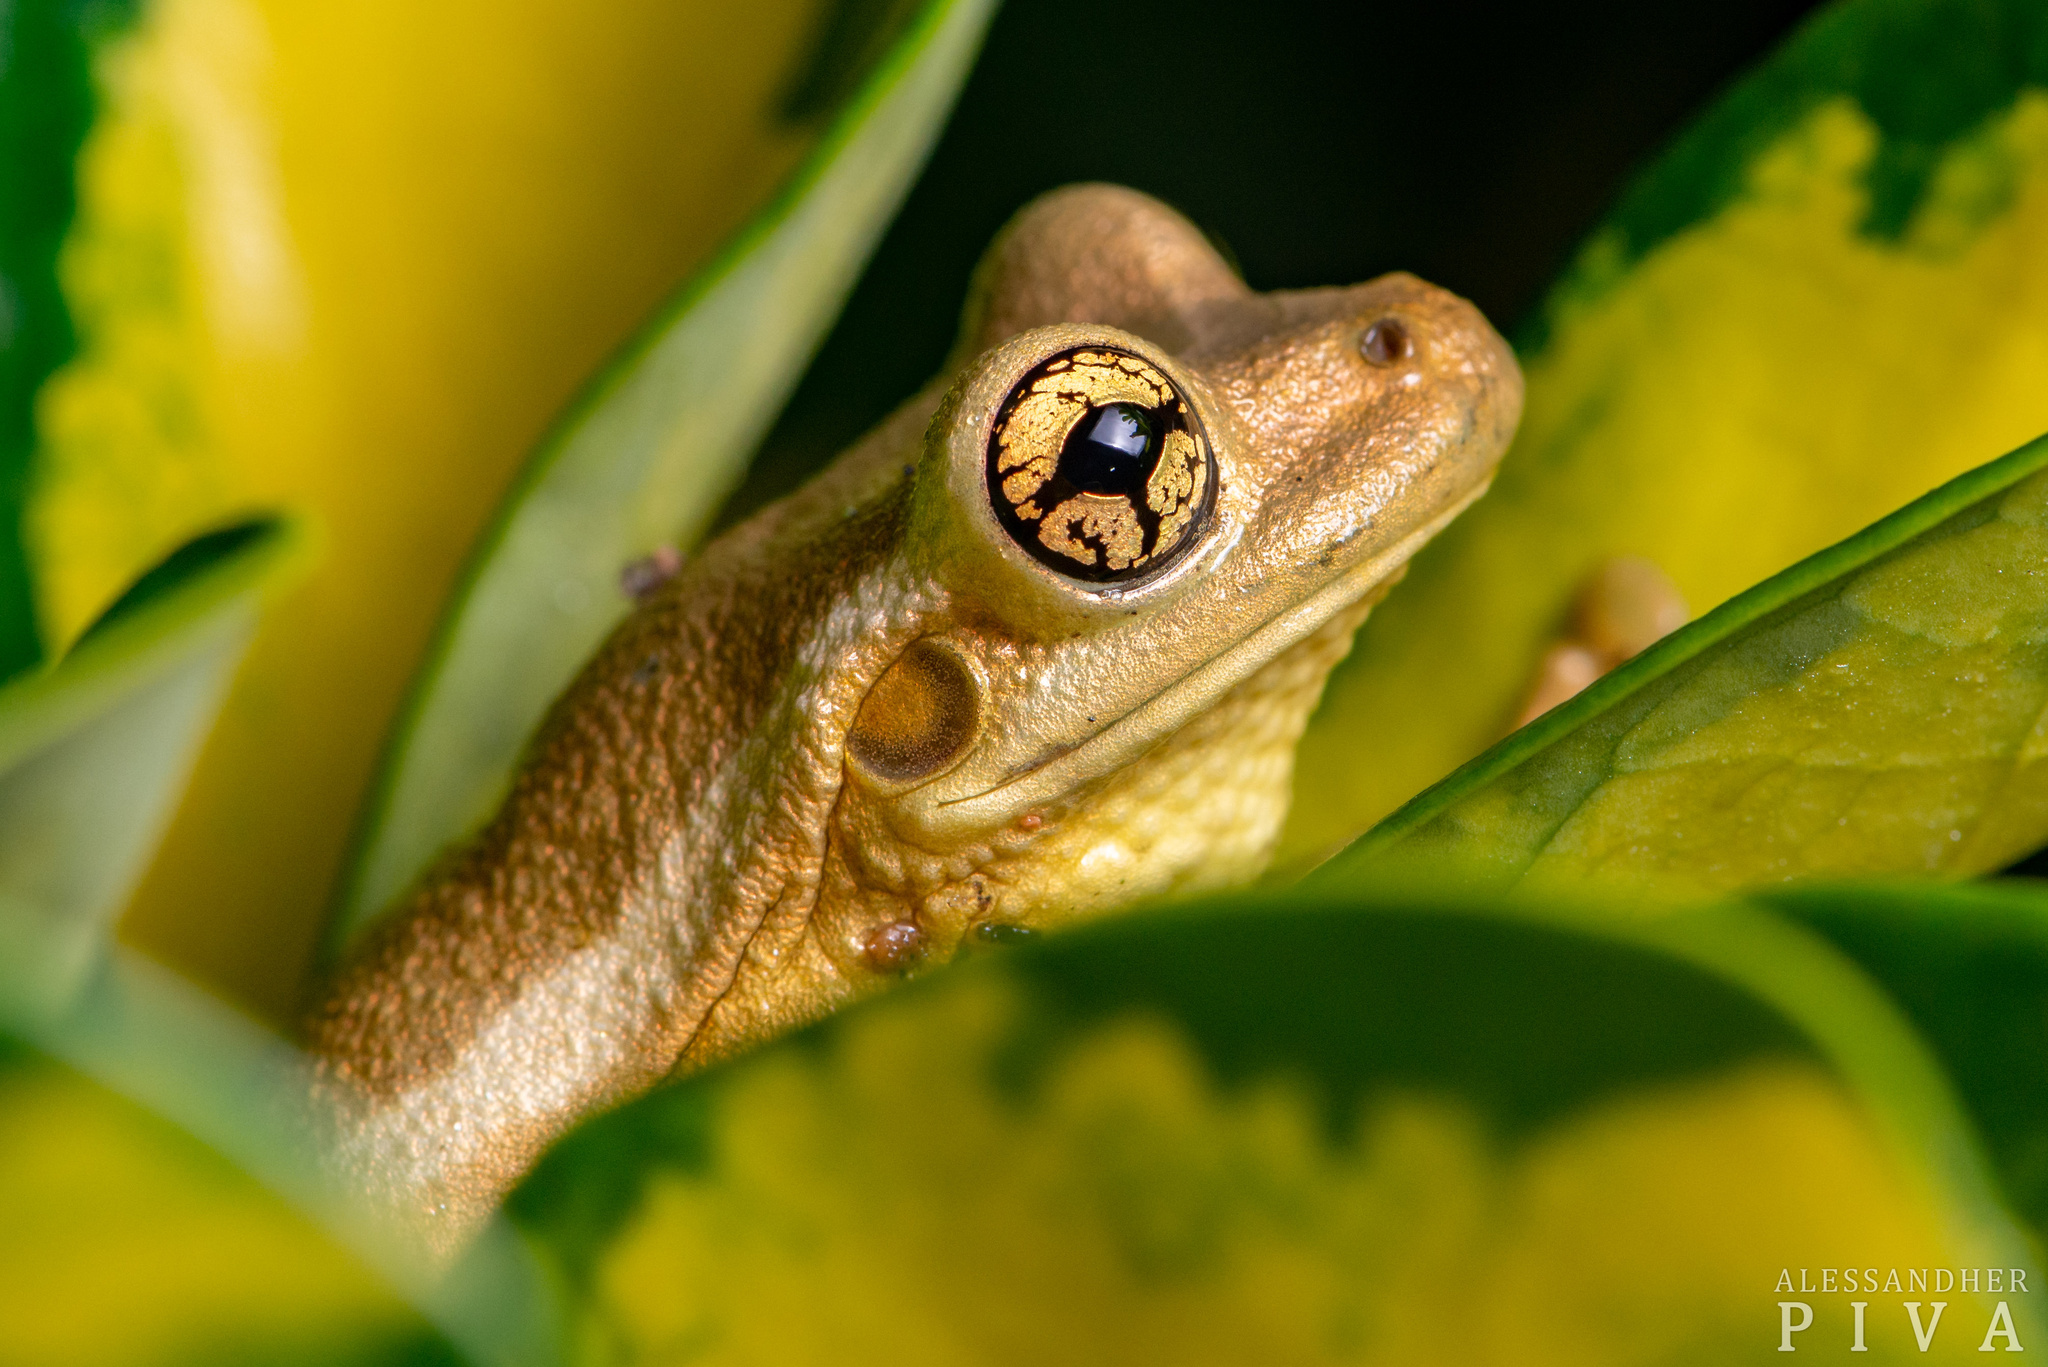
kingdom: Animalia
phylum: Chordata
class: Amphibia
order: Anura
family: Hylidae
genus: Trachycephalus
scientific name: Trachycephalus mesophaeus
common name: Porto alegre golden-eyed treefrog
